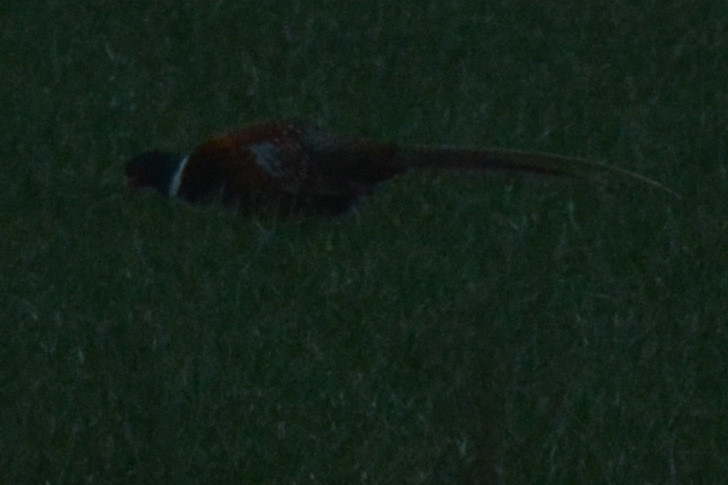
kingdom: Animalia
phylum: Chordata
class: Aves
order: Galliformes
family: Phasianidae
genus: Phasianus
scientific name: Phasianus colchicus
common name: Common pheasant
